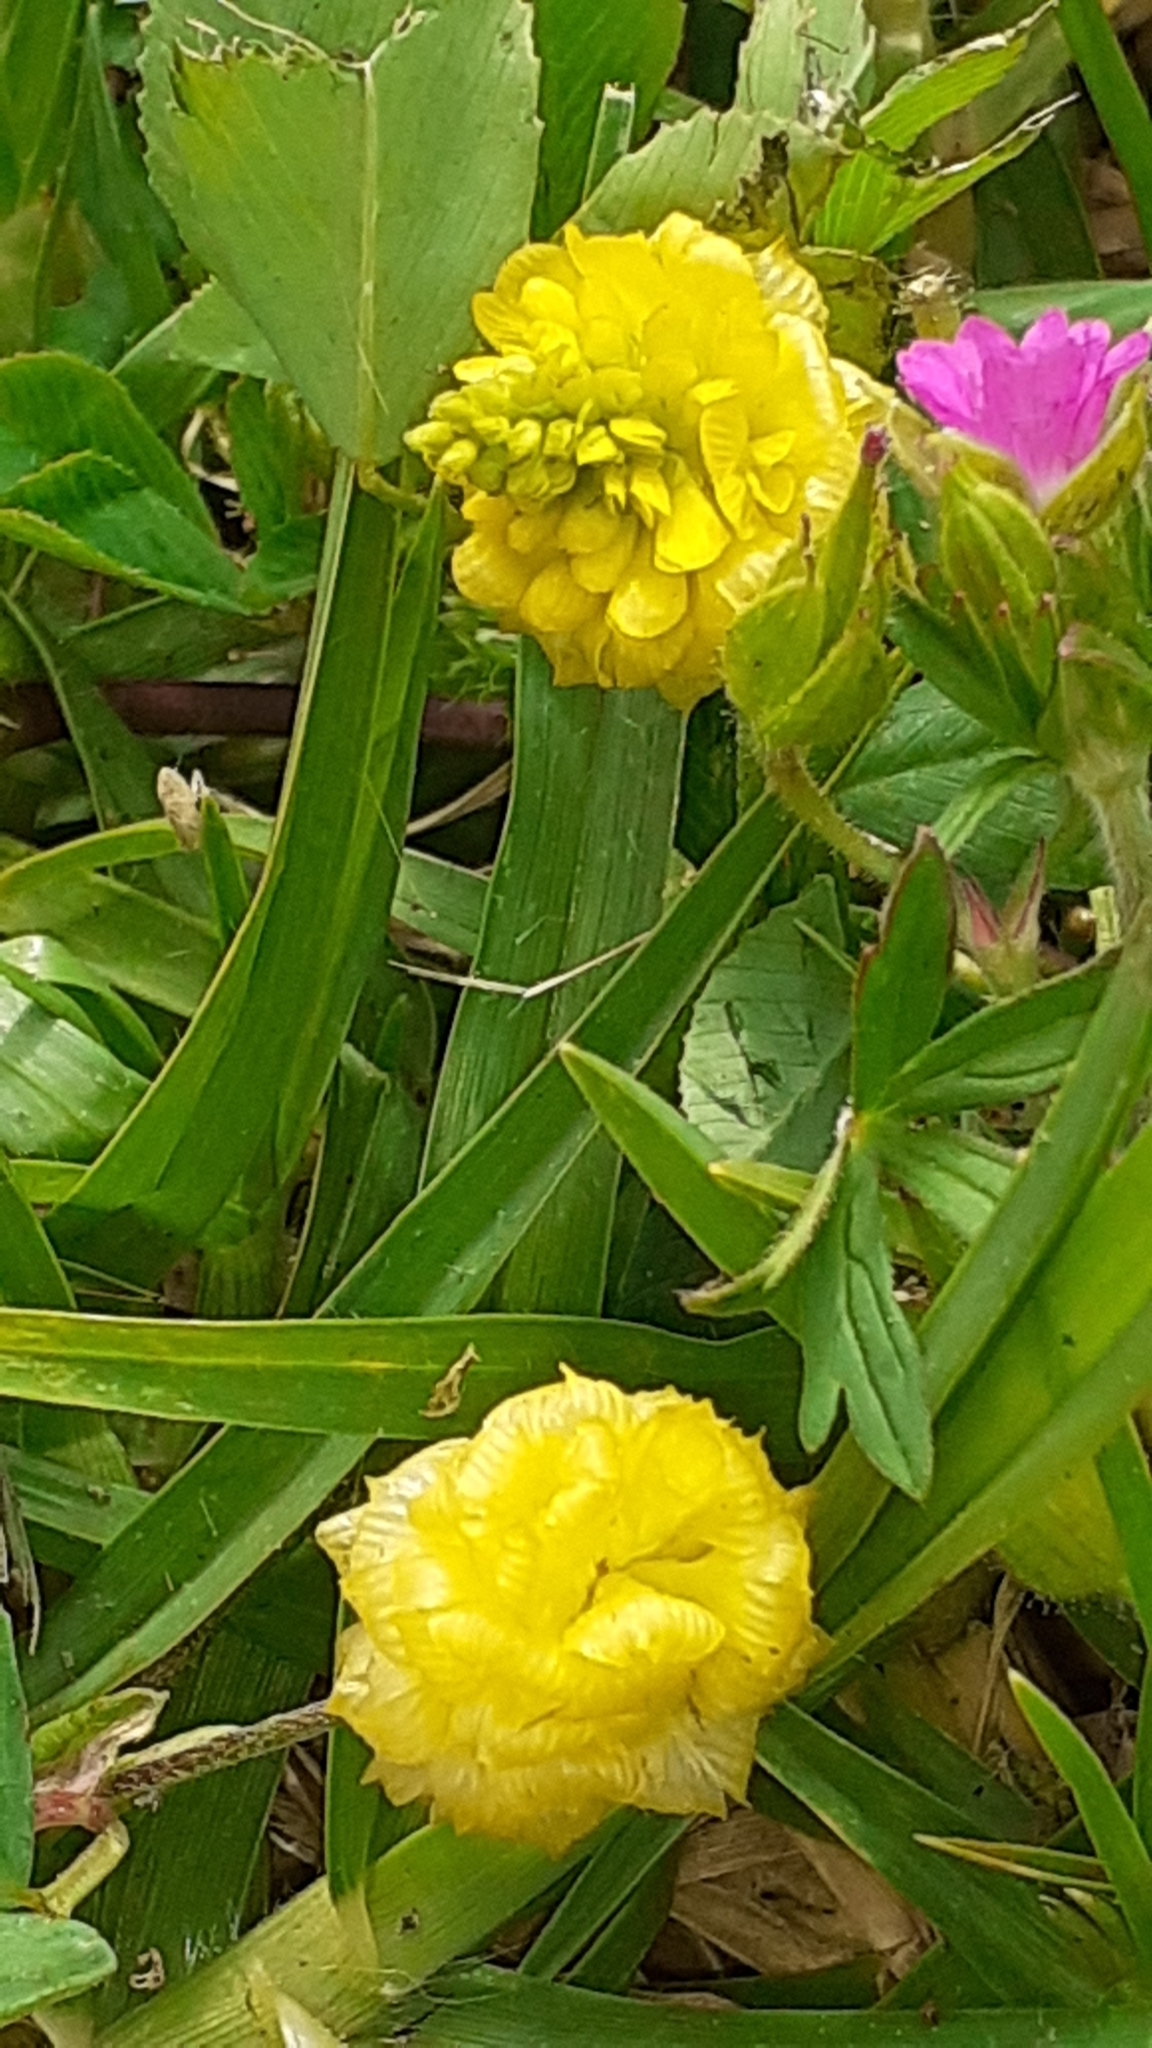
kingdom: Plantae
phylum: Tracheophyta
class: Magnoliopsida
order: Fabales
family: Fabaceae
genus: Trifolium
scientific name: Trifolium campestre
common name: Field clover
